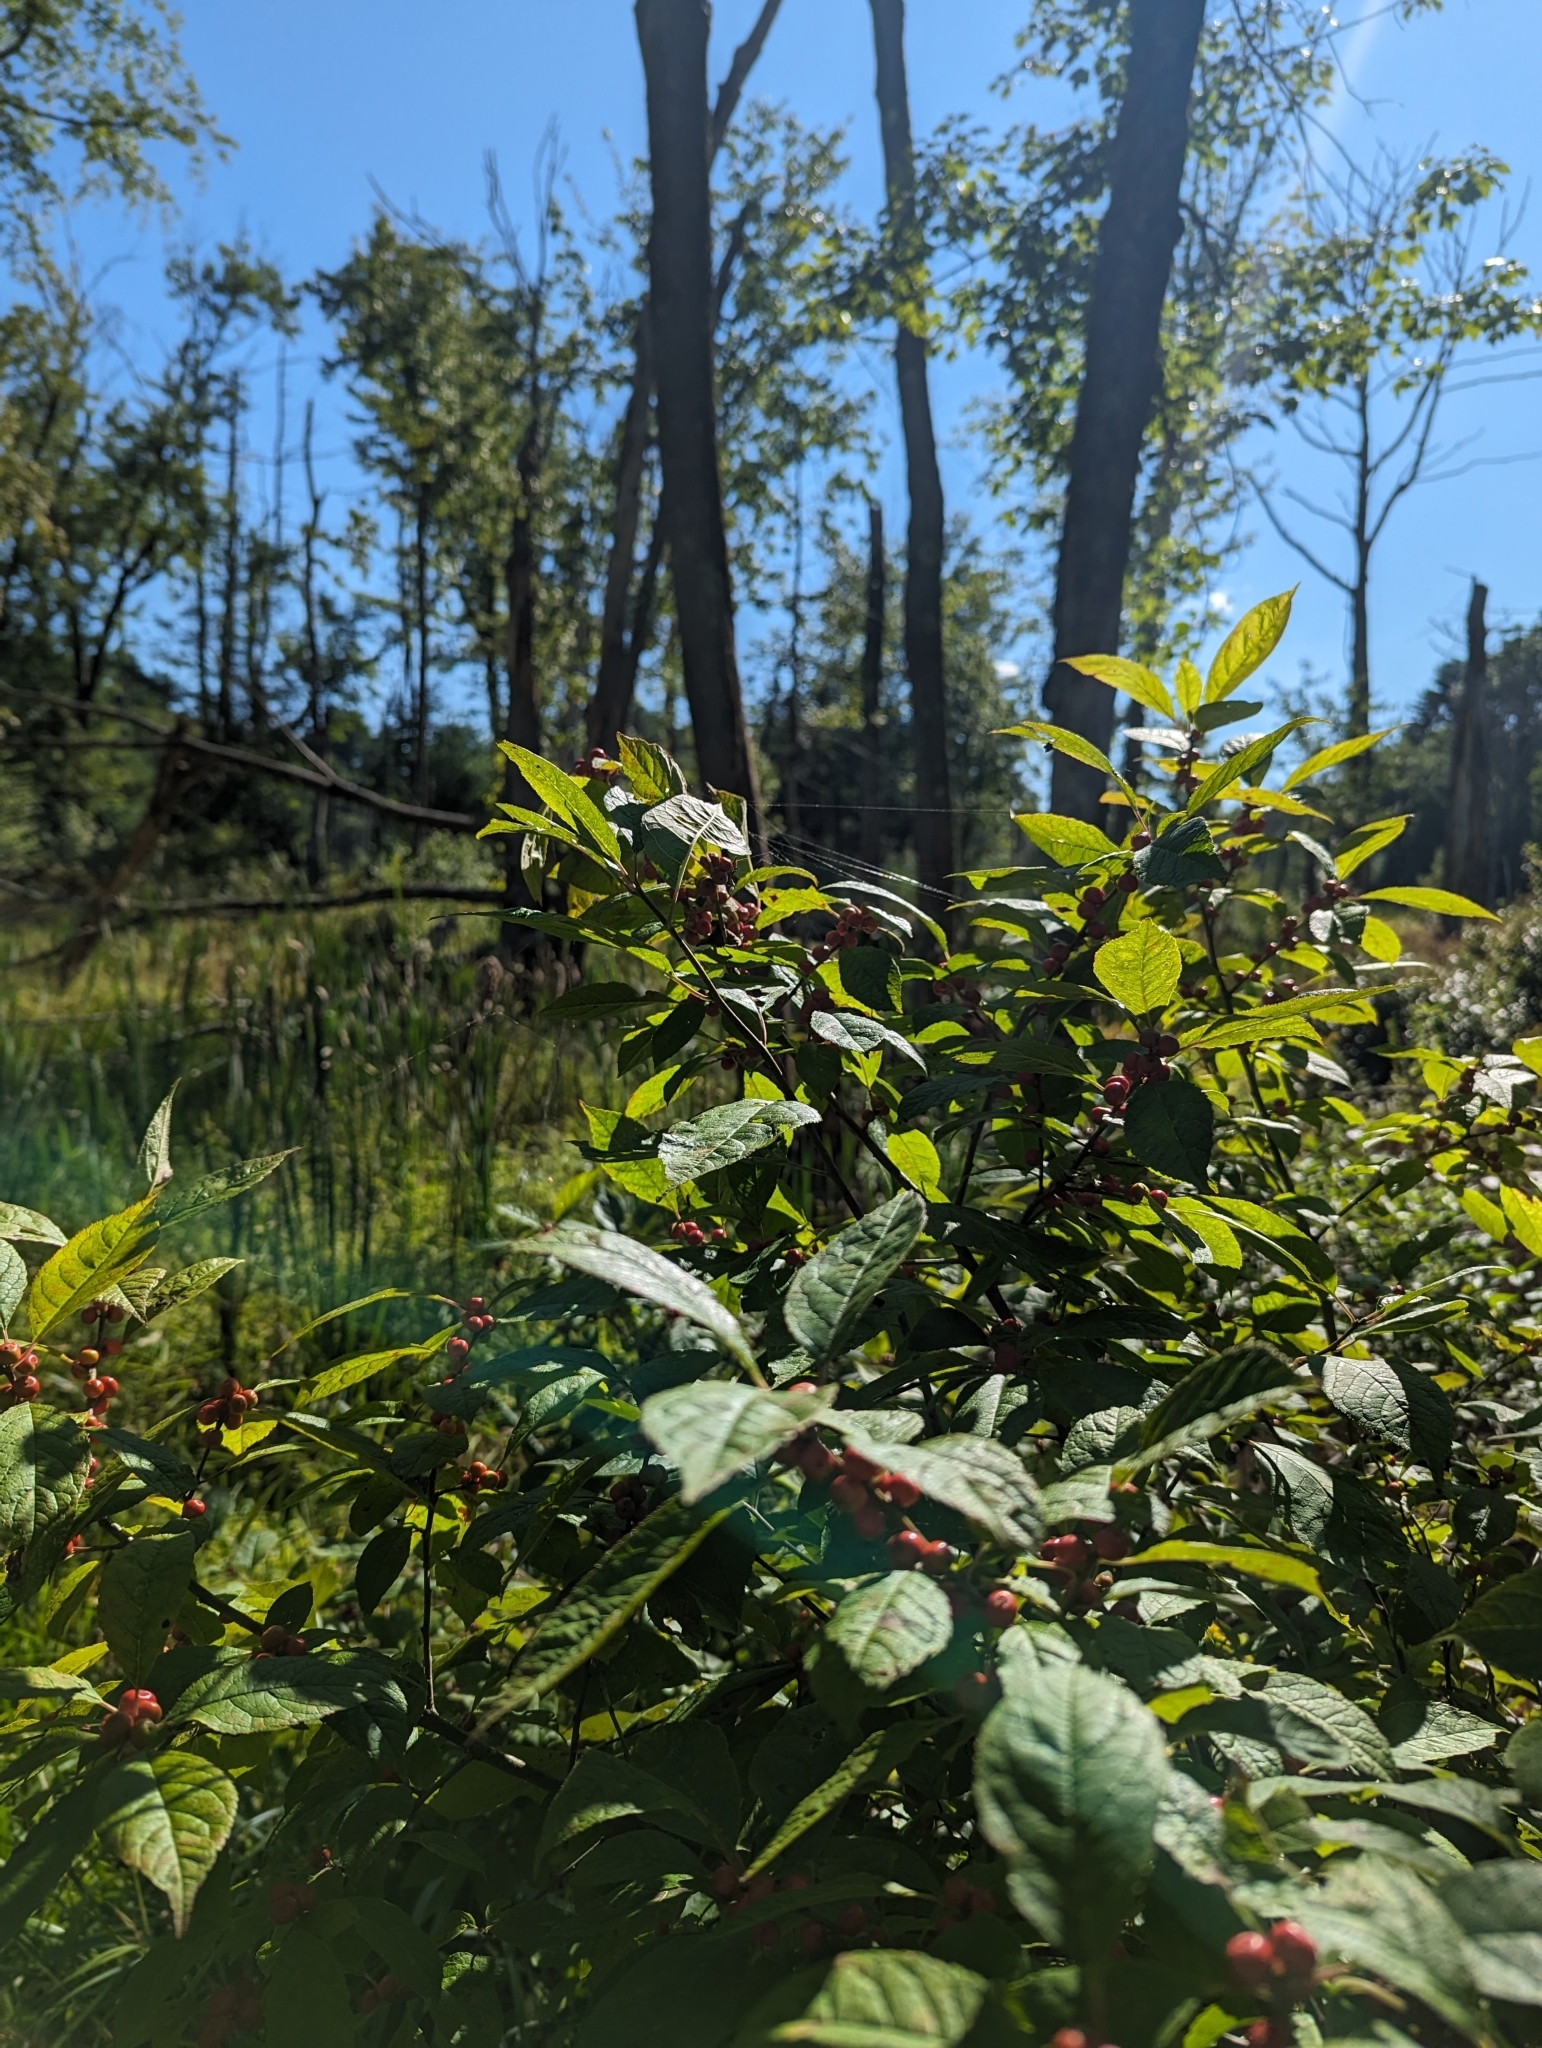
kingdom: Plantae
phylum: Tracheophyta
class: Magnoliopsida
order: Aquifoliales
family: Aquifoliaceae
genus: Ilex
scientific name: Ilex verticillata
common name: Virginia winterberry
